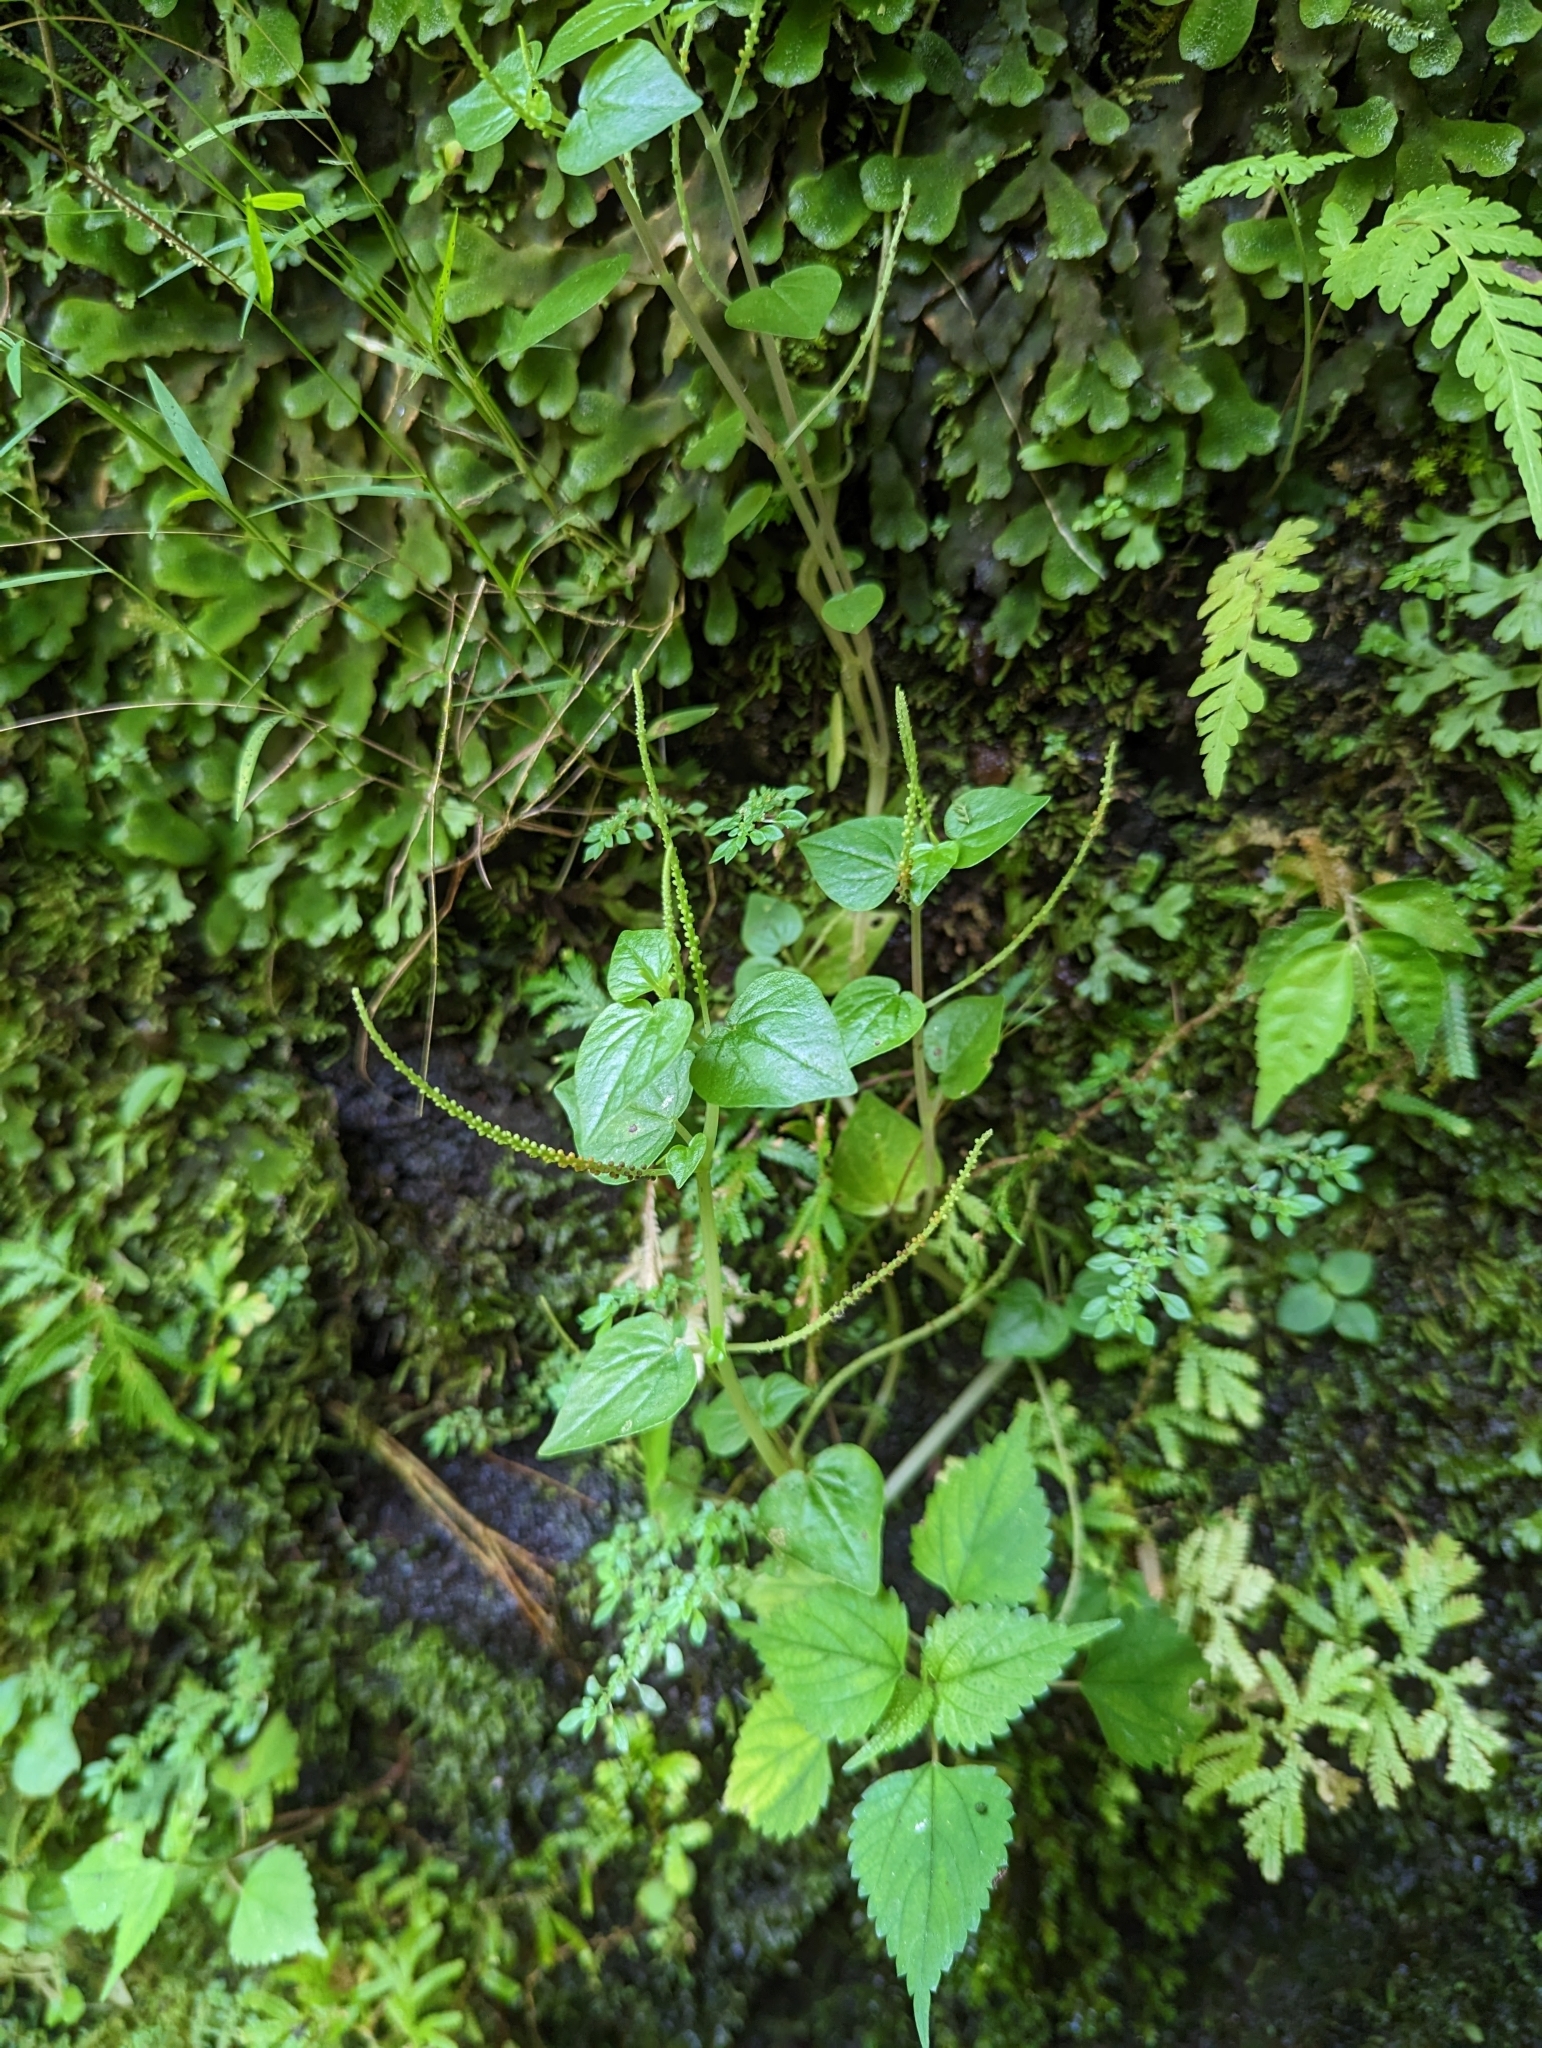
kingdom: Plantae
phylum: Tracheophyta
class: Magnoliopsida
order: Piperales
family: Piperaceae
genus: Peperomia
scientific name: Peperomia pellucida
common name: Man to man
